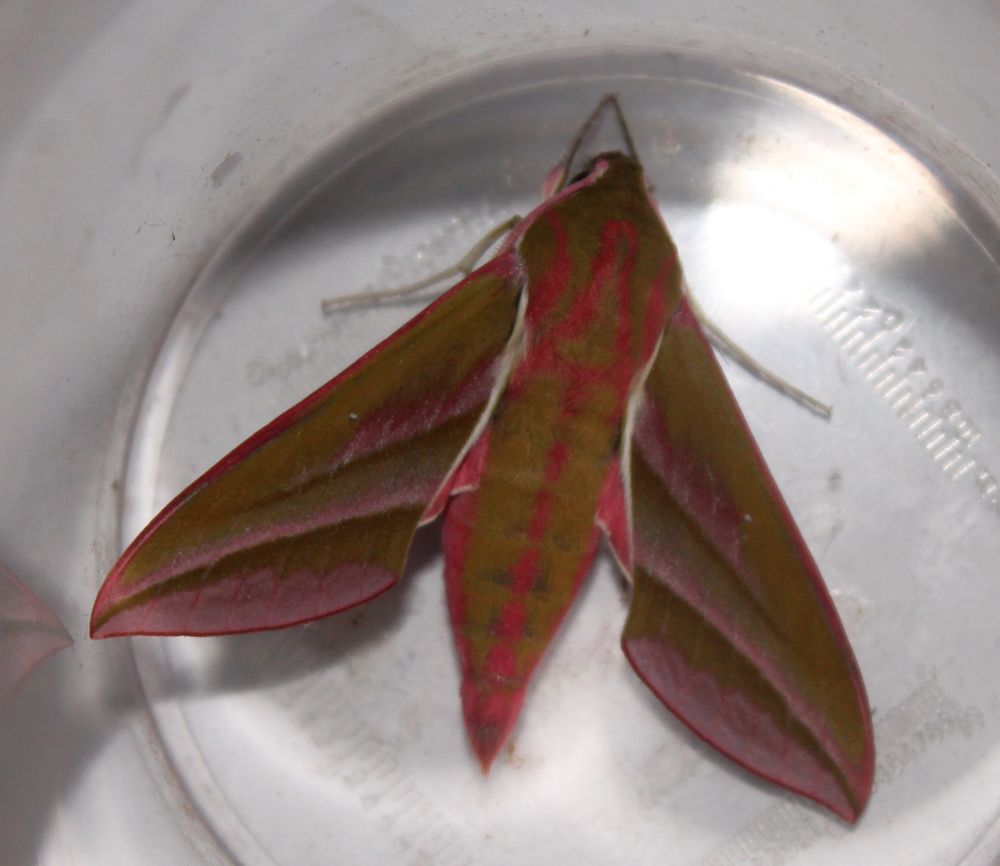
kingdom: Animalia
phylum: Arthropoda
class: Insecta
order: Lepidoptera
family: Sphingidae
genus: Deilephila
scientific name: Deilephila elpenor
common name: Elephant hawk-moth
